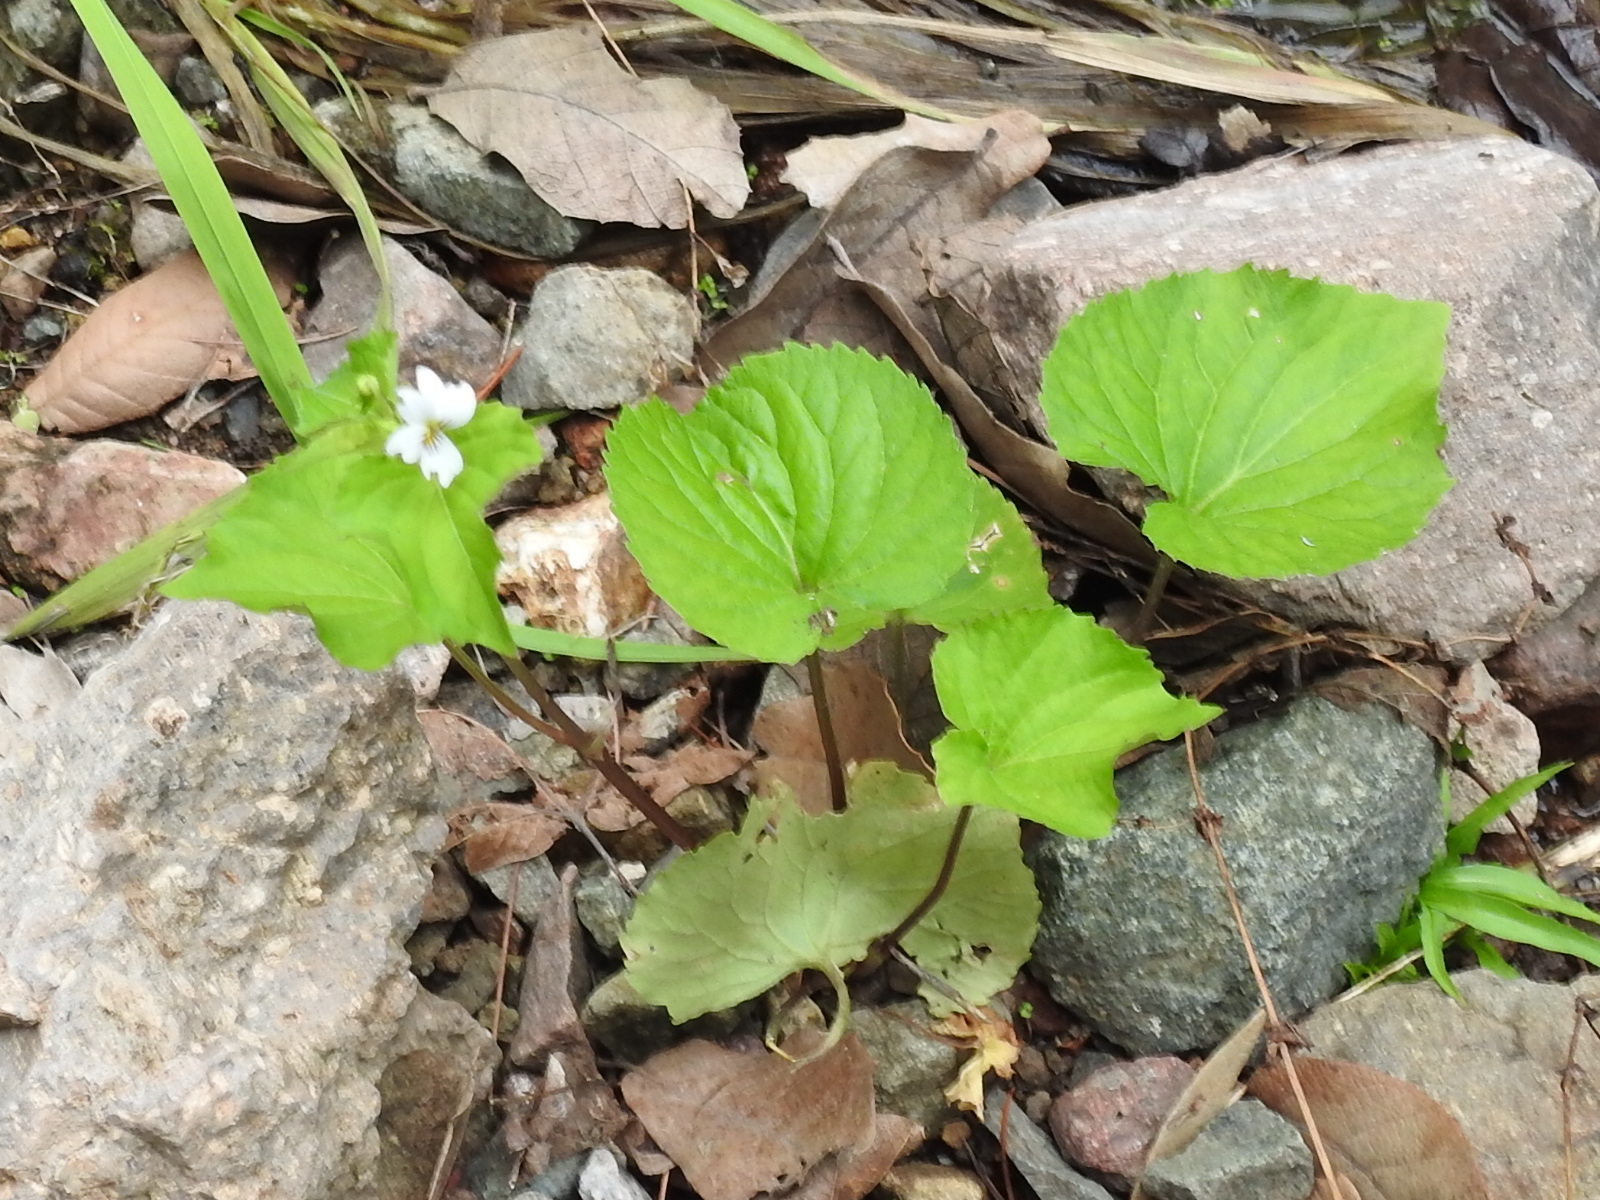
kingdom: Plantae
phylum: Tracheophyta
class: Magnoliopsida
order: Malpighiales
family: Violaceae
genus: Viola
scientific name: Viola canadensis
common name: Canada violet
